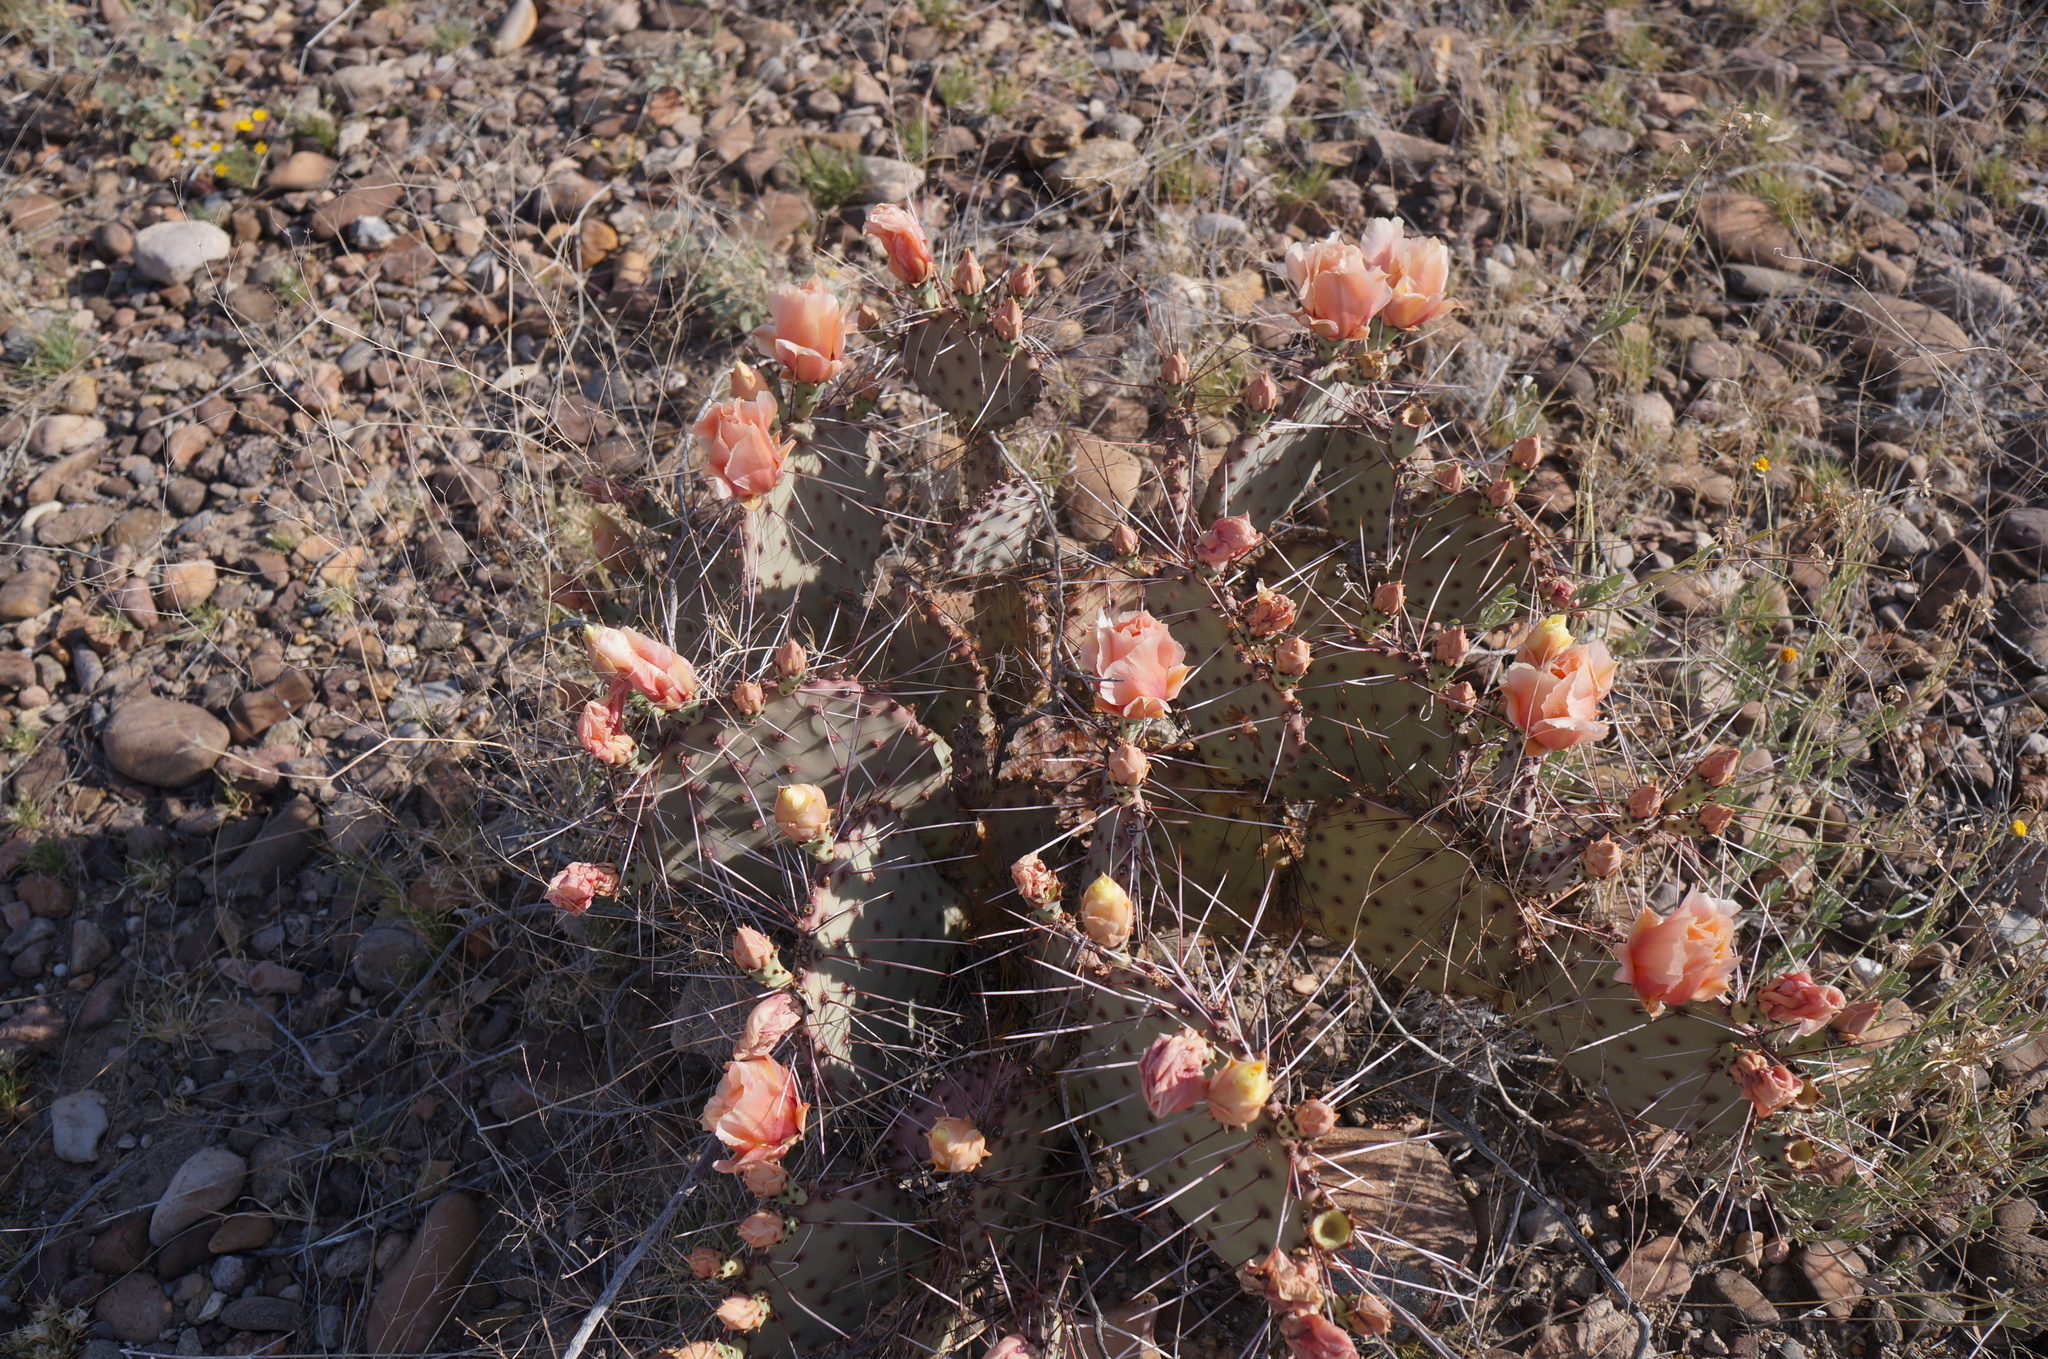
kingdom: Plantae
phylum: Tracheophyta
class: Magnoliopsida
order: Caryophyllales
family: Cactaceae
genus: Opuntia
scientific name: Opuntia phaeacantha
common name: New mexico prickly-pear
